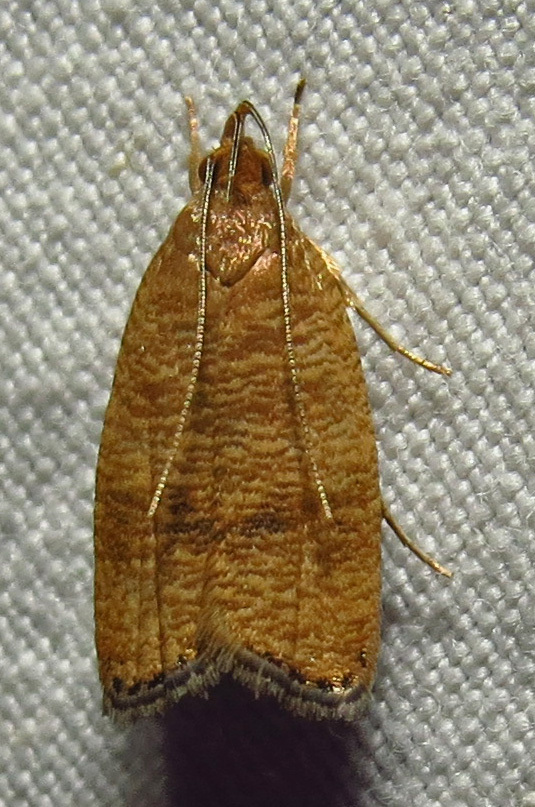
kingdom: Animalia
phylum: Arthropoda
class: Insecta
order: Lepidoptera
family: Depressariidae
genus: Psilocorsis
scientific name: Psilocorsis cryptolechiella
